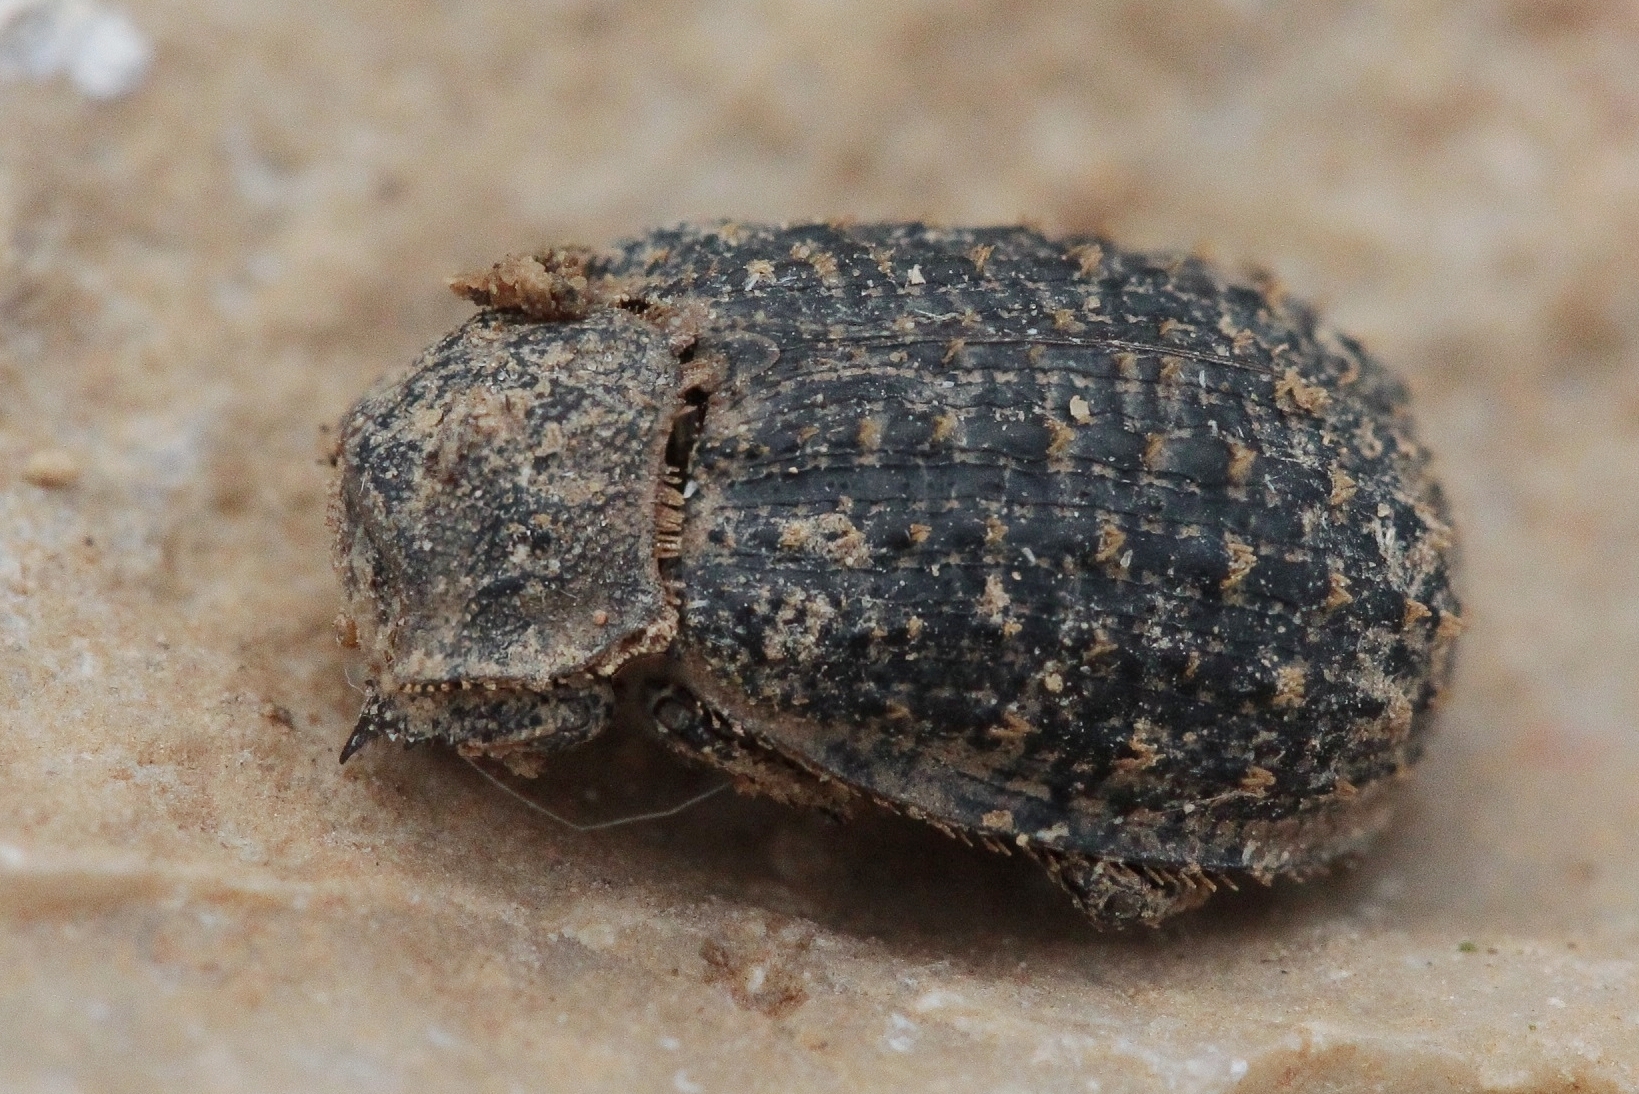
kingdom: Animalia
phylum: Arthropoda
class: Insecta
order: Coleoptera
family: Trogidae
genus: Trox
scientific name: Trox hispidus
